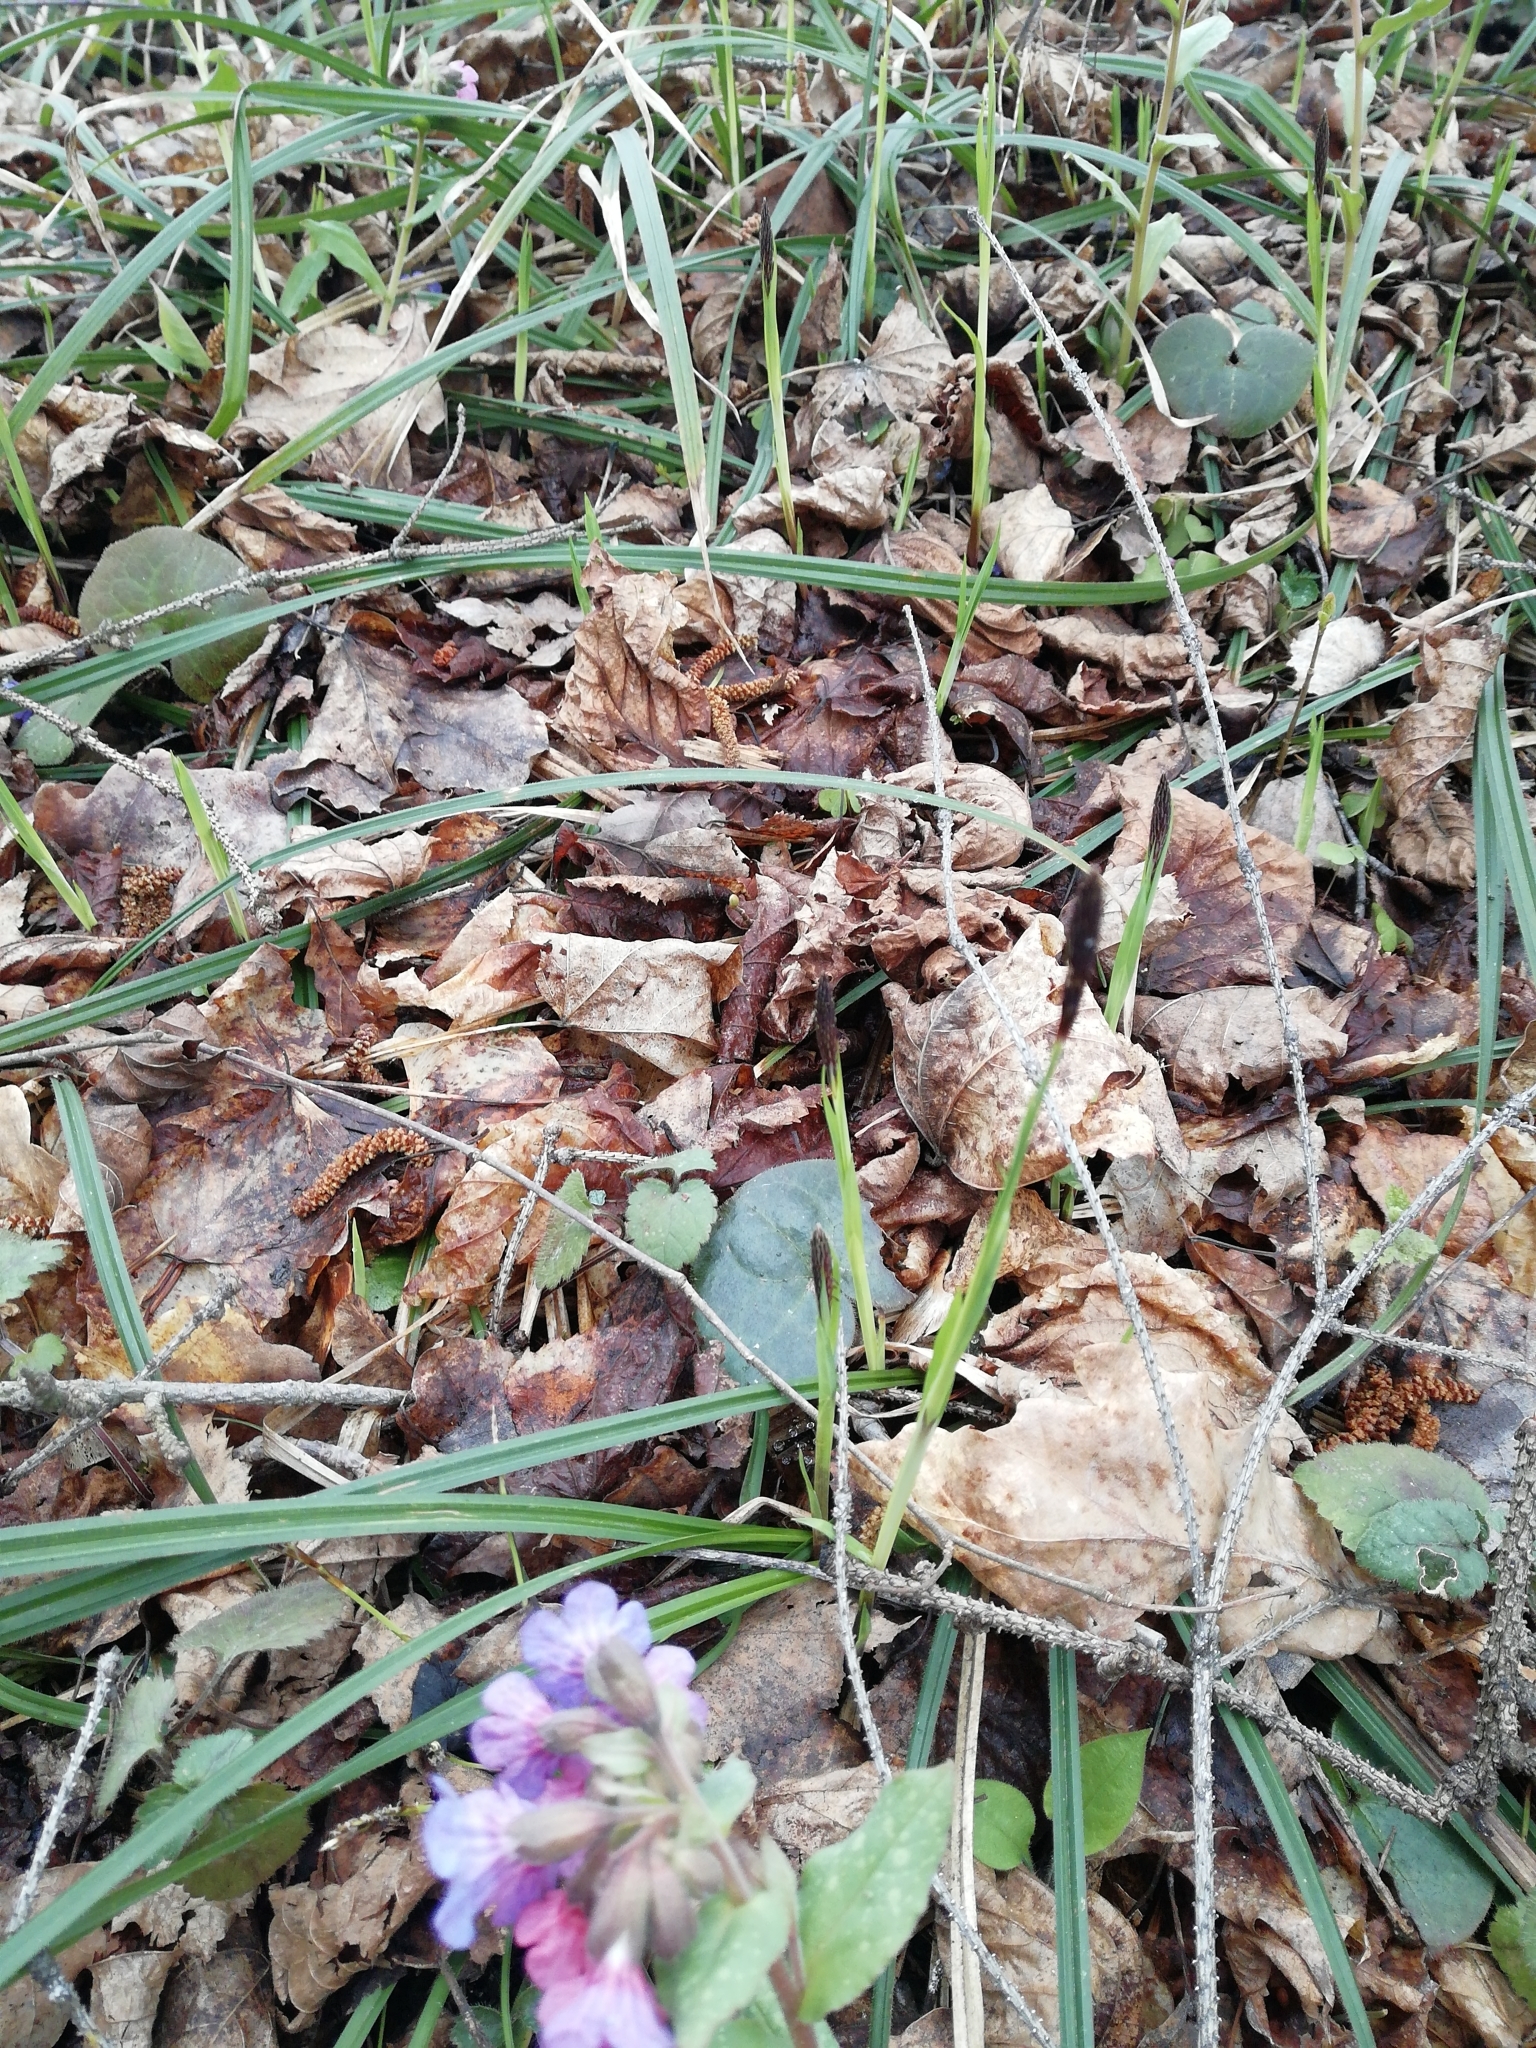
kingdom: Plantae
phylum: Tracheophyta
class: Liliopsida
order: Poales
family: Cyperaceae
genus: Carex
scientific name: Carex pilosa
